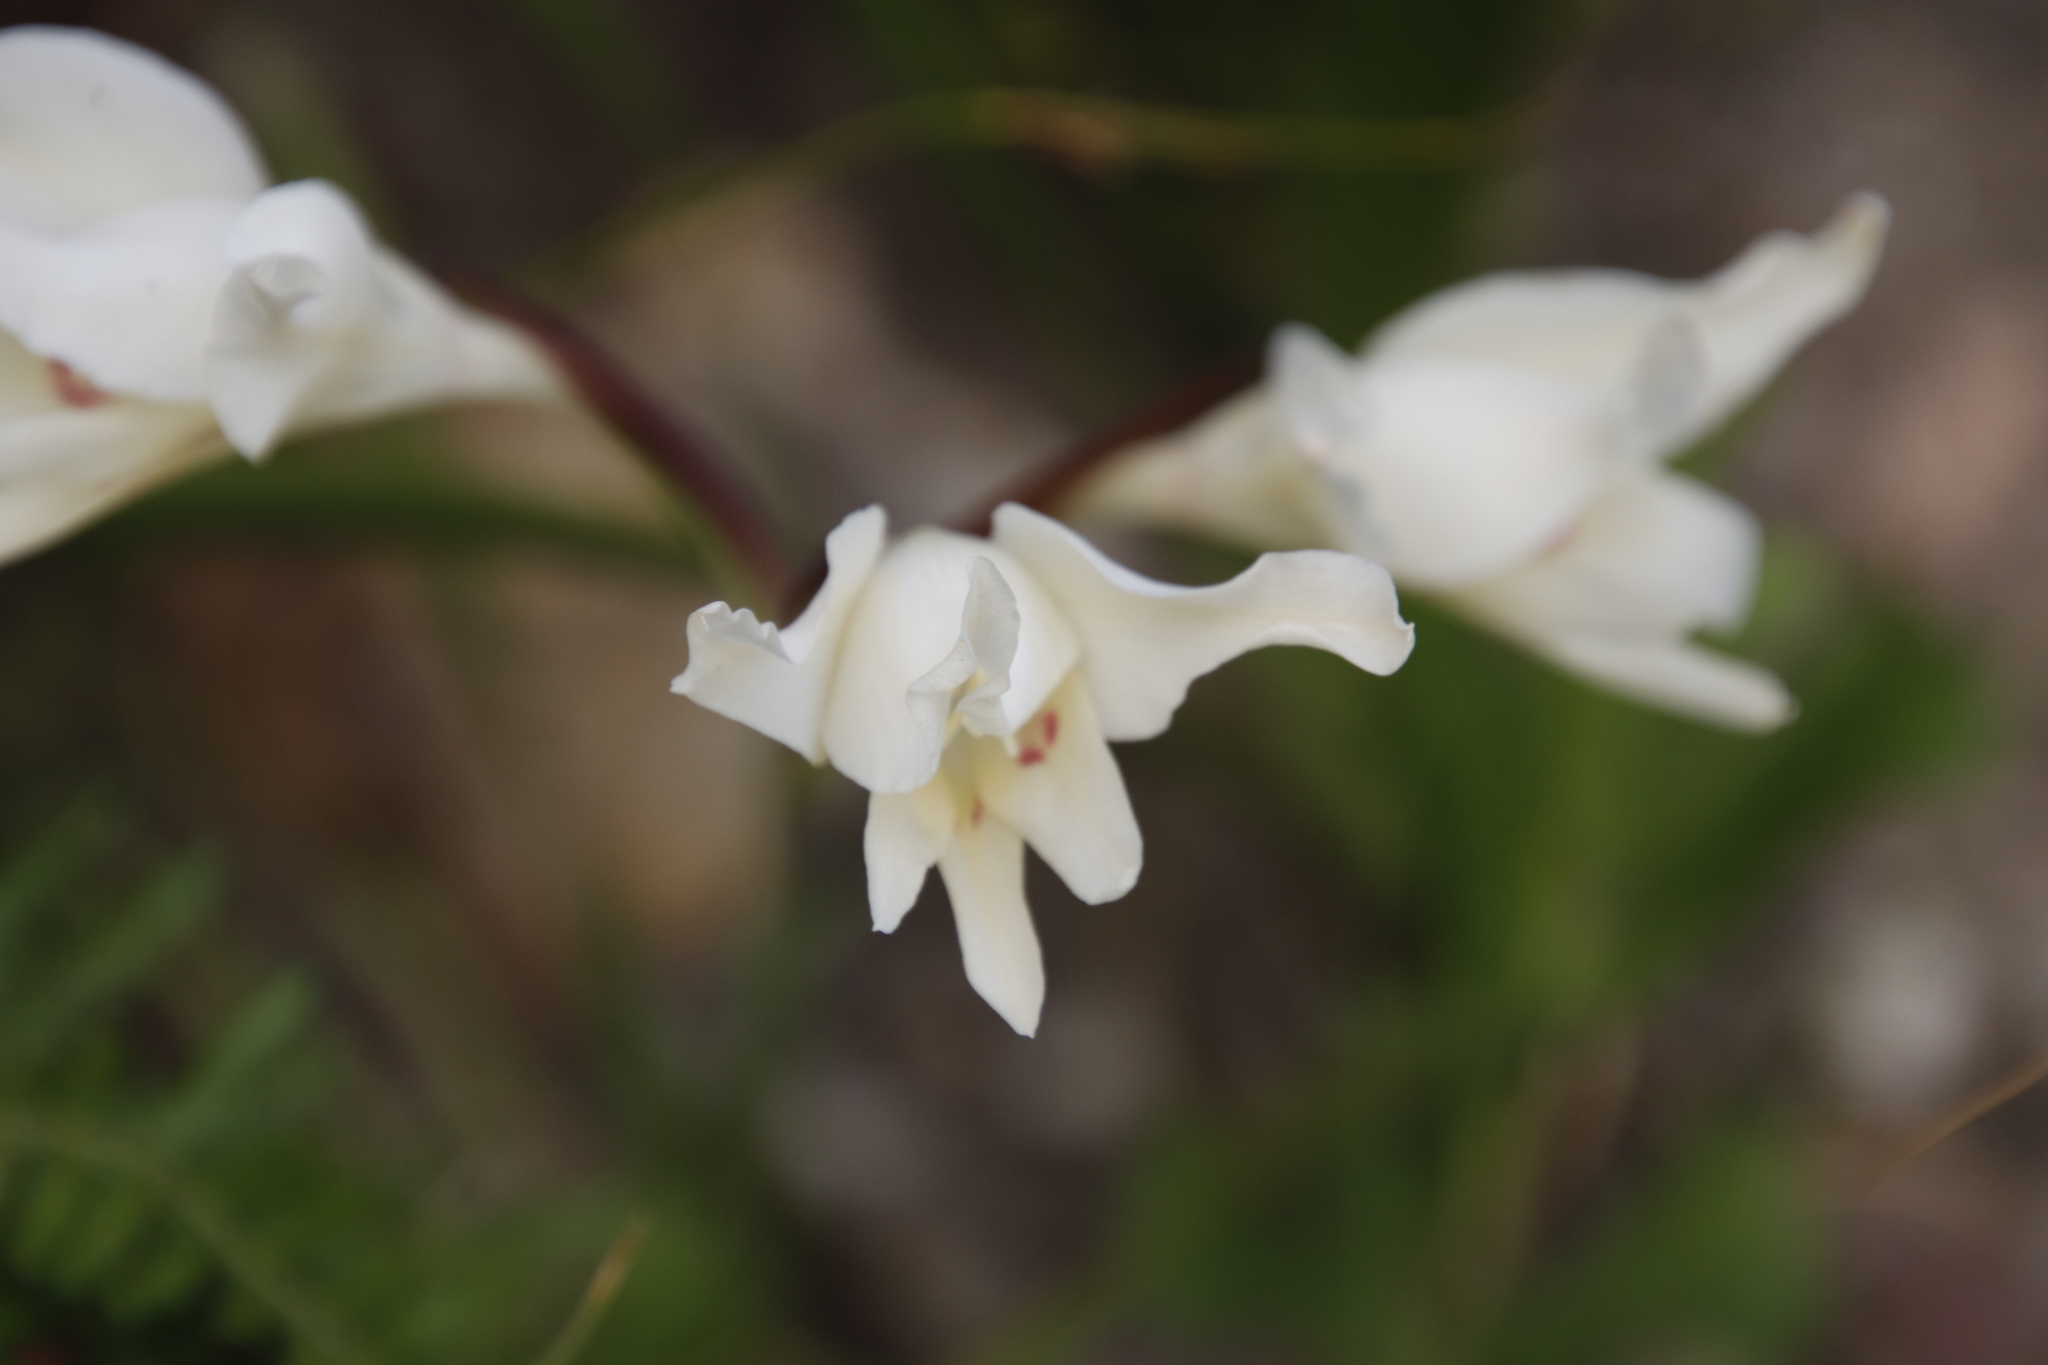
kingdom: Plantae
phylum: Tracheophyta
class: Liliopsida
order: Asparagales
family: Iridaceae
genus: Gladiolus
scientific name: Gladiolus undulatus
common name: Large painted-lady
